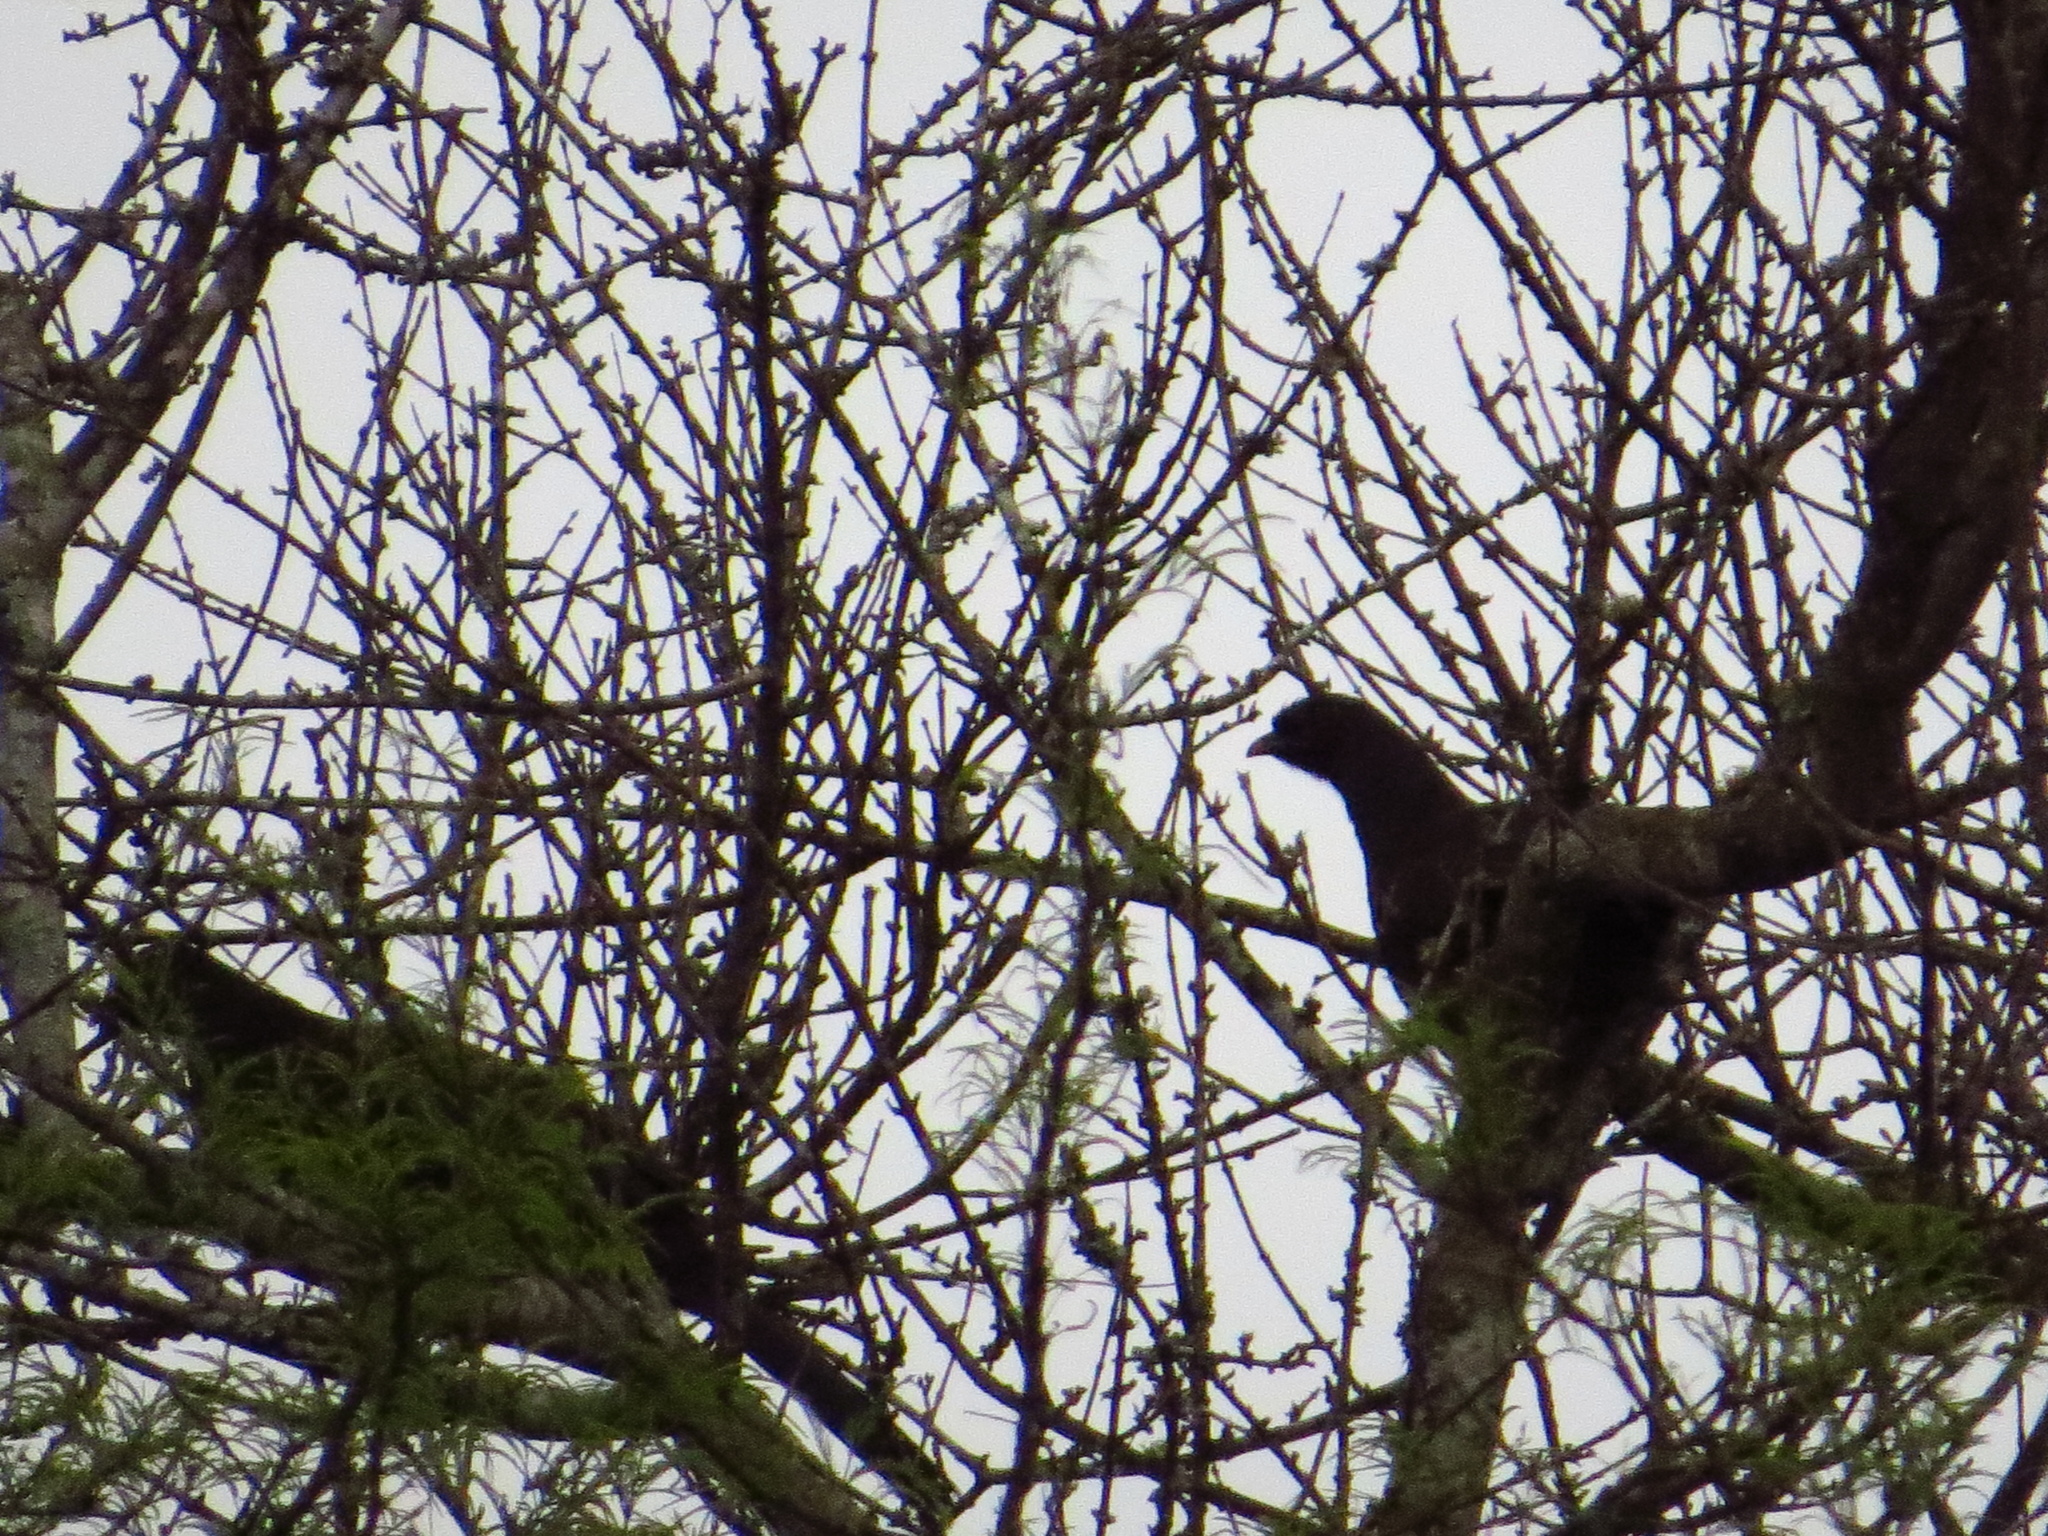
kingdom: Animalia
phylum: Chordata
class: Aves
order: Galliformes
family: Cracidae
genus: Ortalis
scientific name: Ortalis canicollis
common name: Chaco chachalaca
